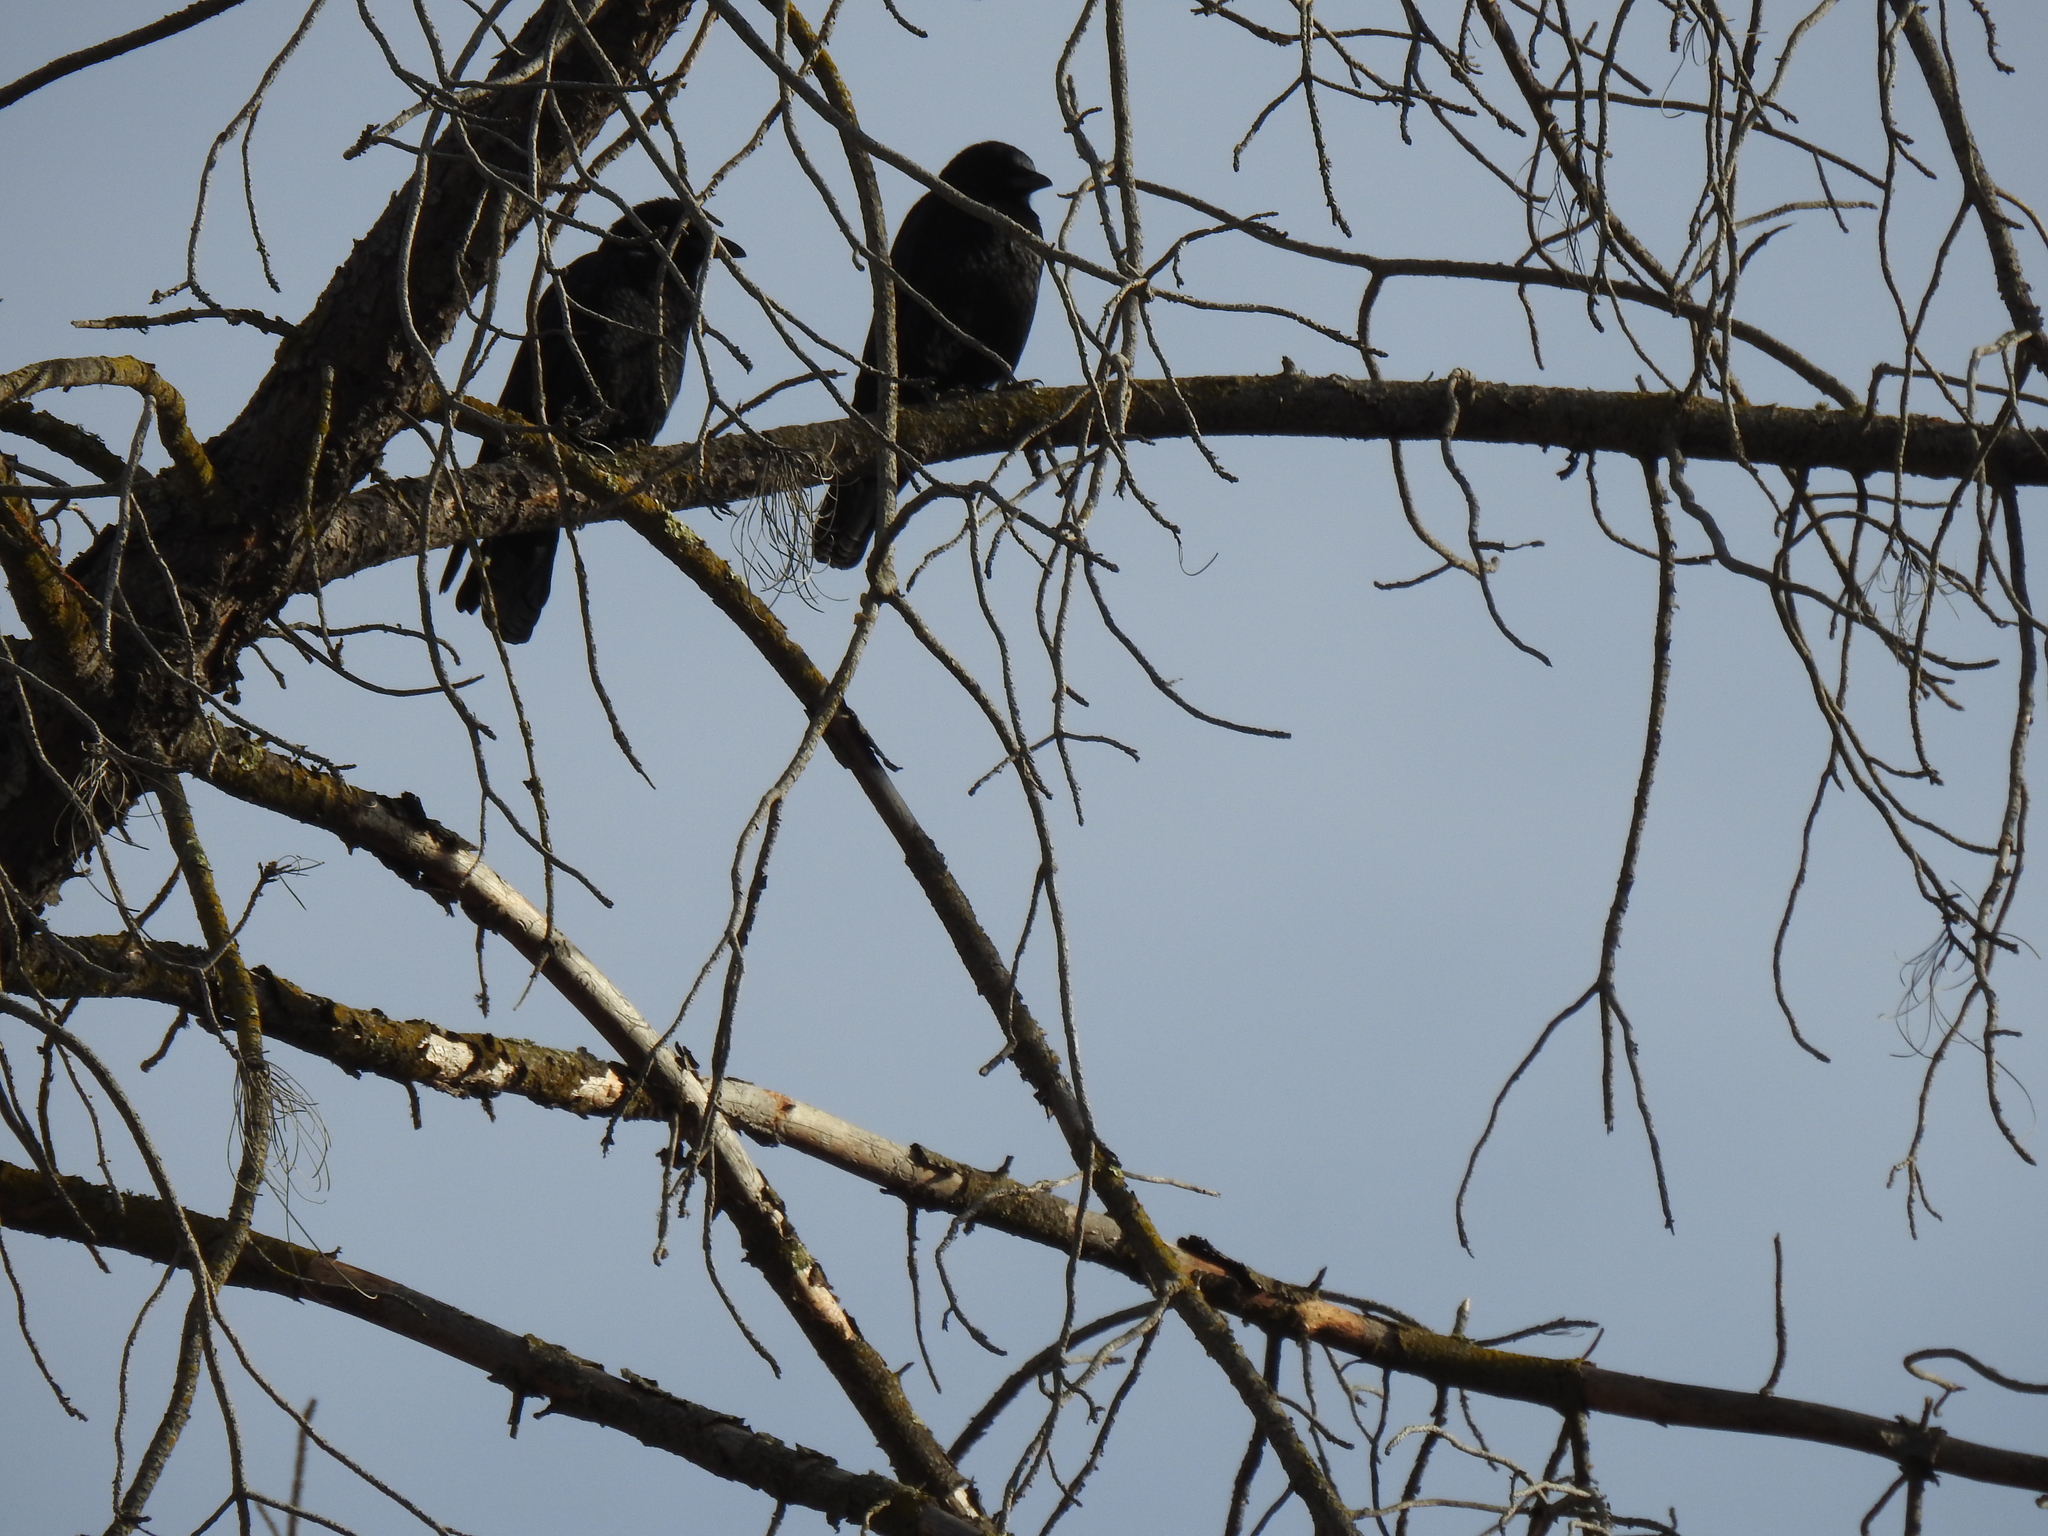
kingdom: Animalia
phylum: Chordata
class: Aves
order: Passeriformes
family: Corvidae
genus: Corvus
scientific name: Corvus brachyrhynchos
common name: American crow
